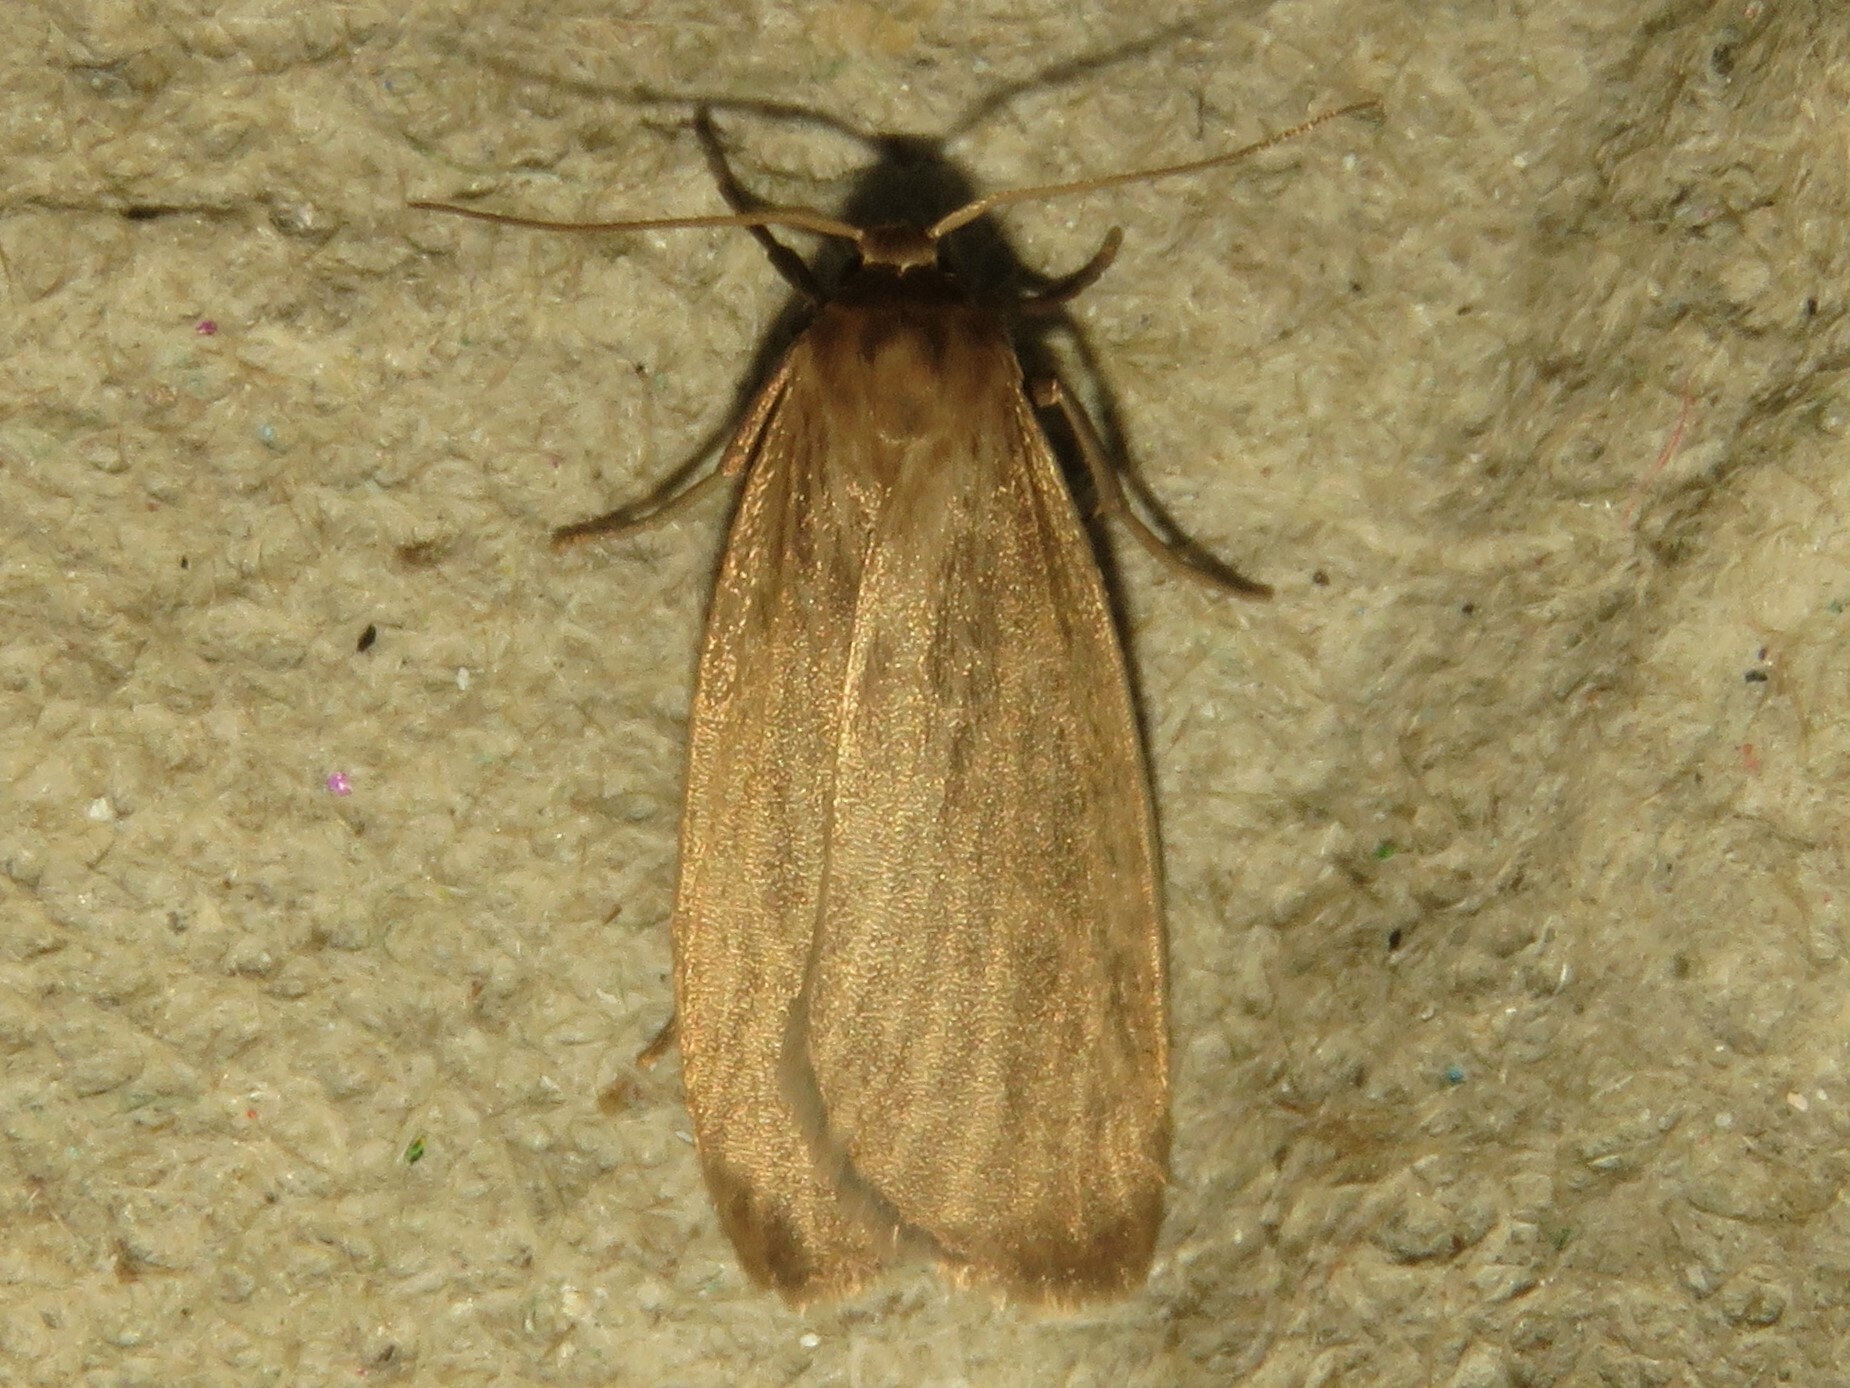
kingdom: Animalia
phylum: Arthropoda
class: Insecta
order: Lepidoptera
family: Erebidae
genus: Crambidia
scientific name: Crambidia pallida
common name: Pale lichen moth
